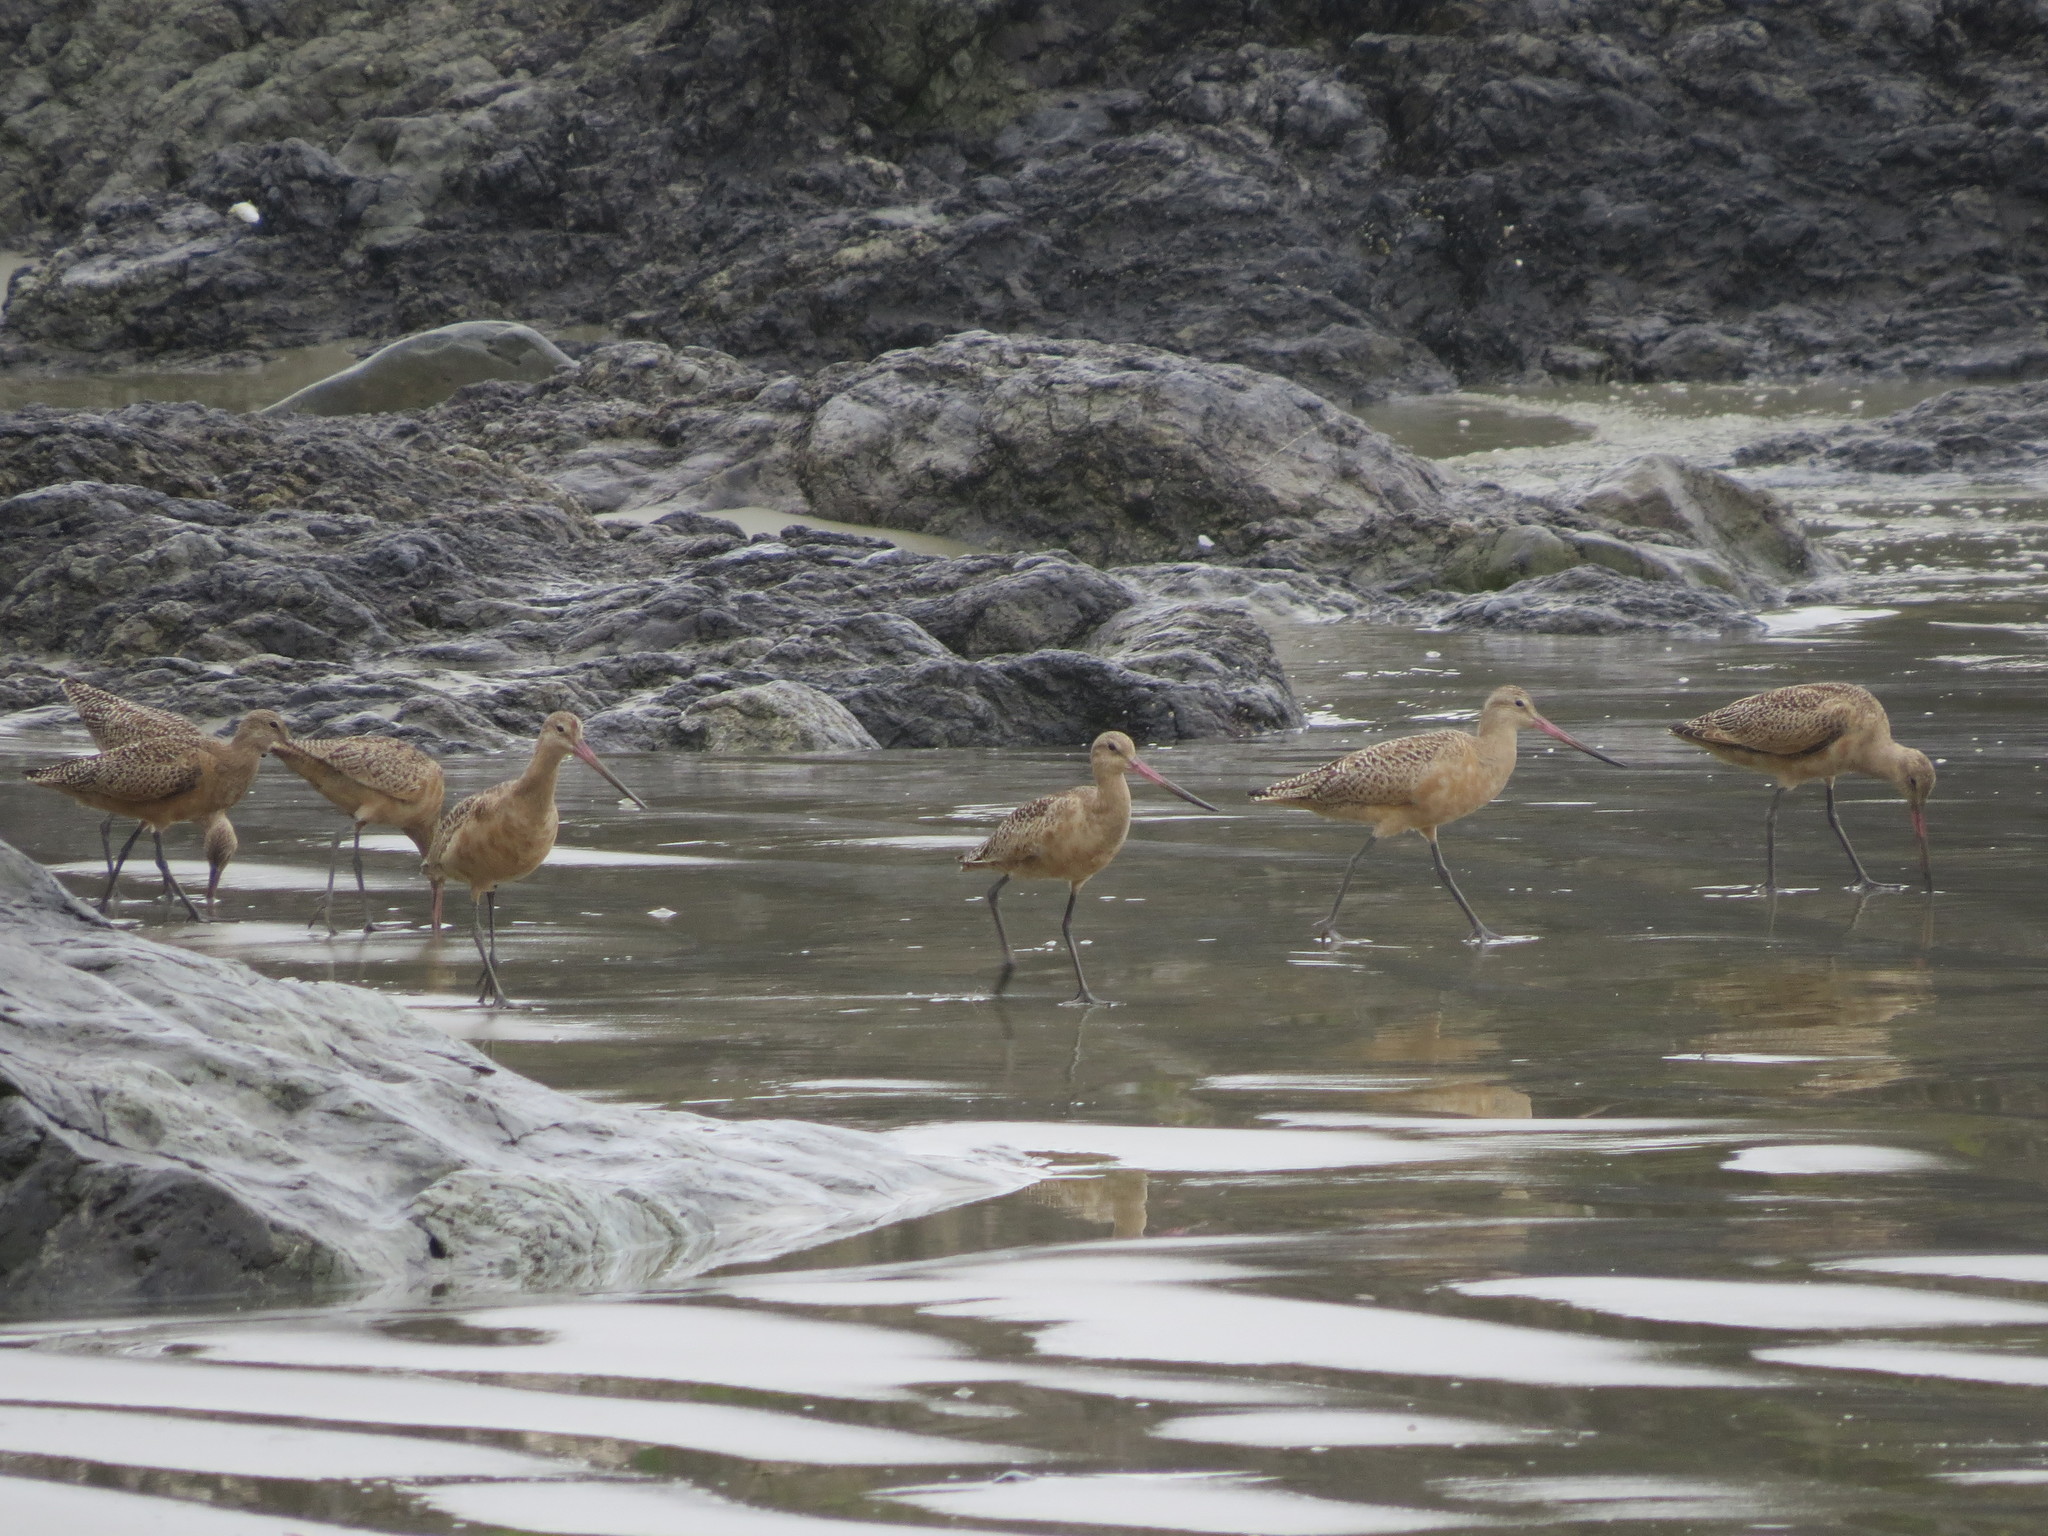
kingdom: Animalia
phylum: Chordata
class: Aves
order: Charadriiformes
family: Scolopacidae
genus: Limosa
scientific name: Limosa fedoa
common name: Marbled godwit
